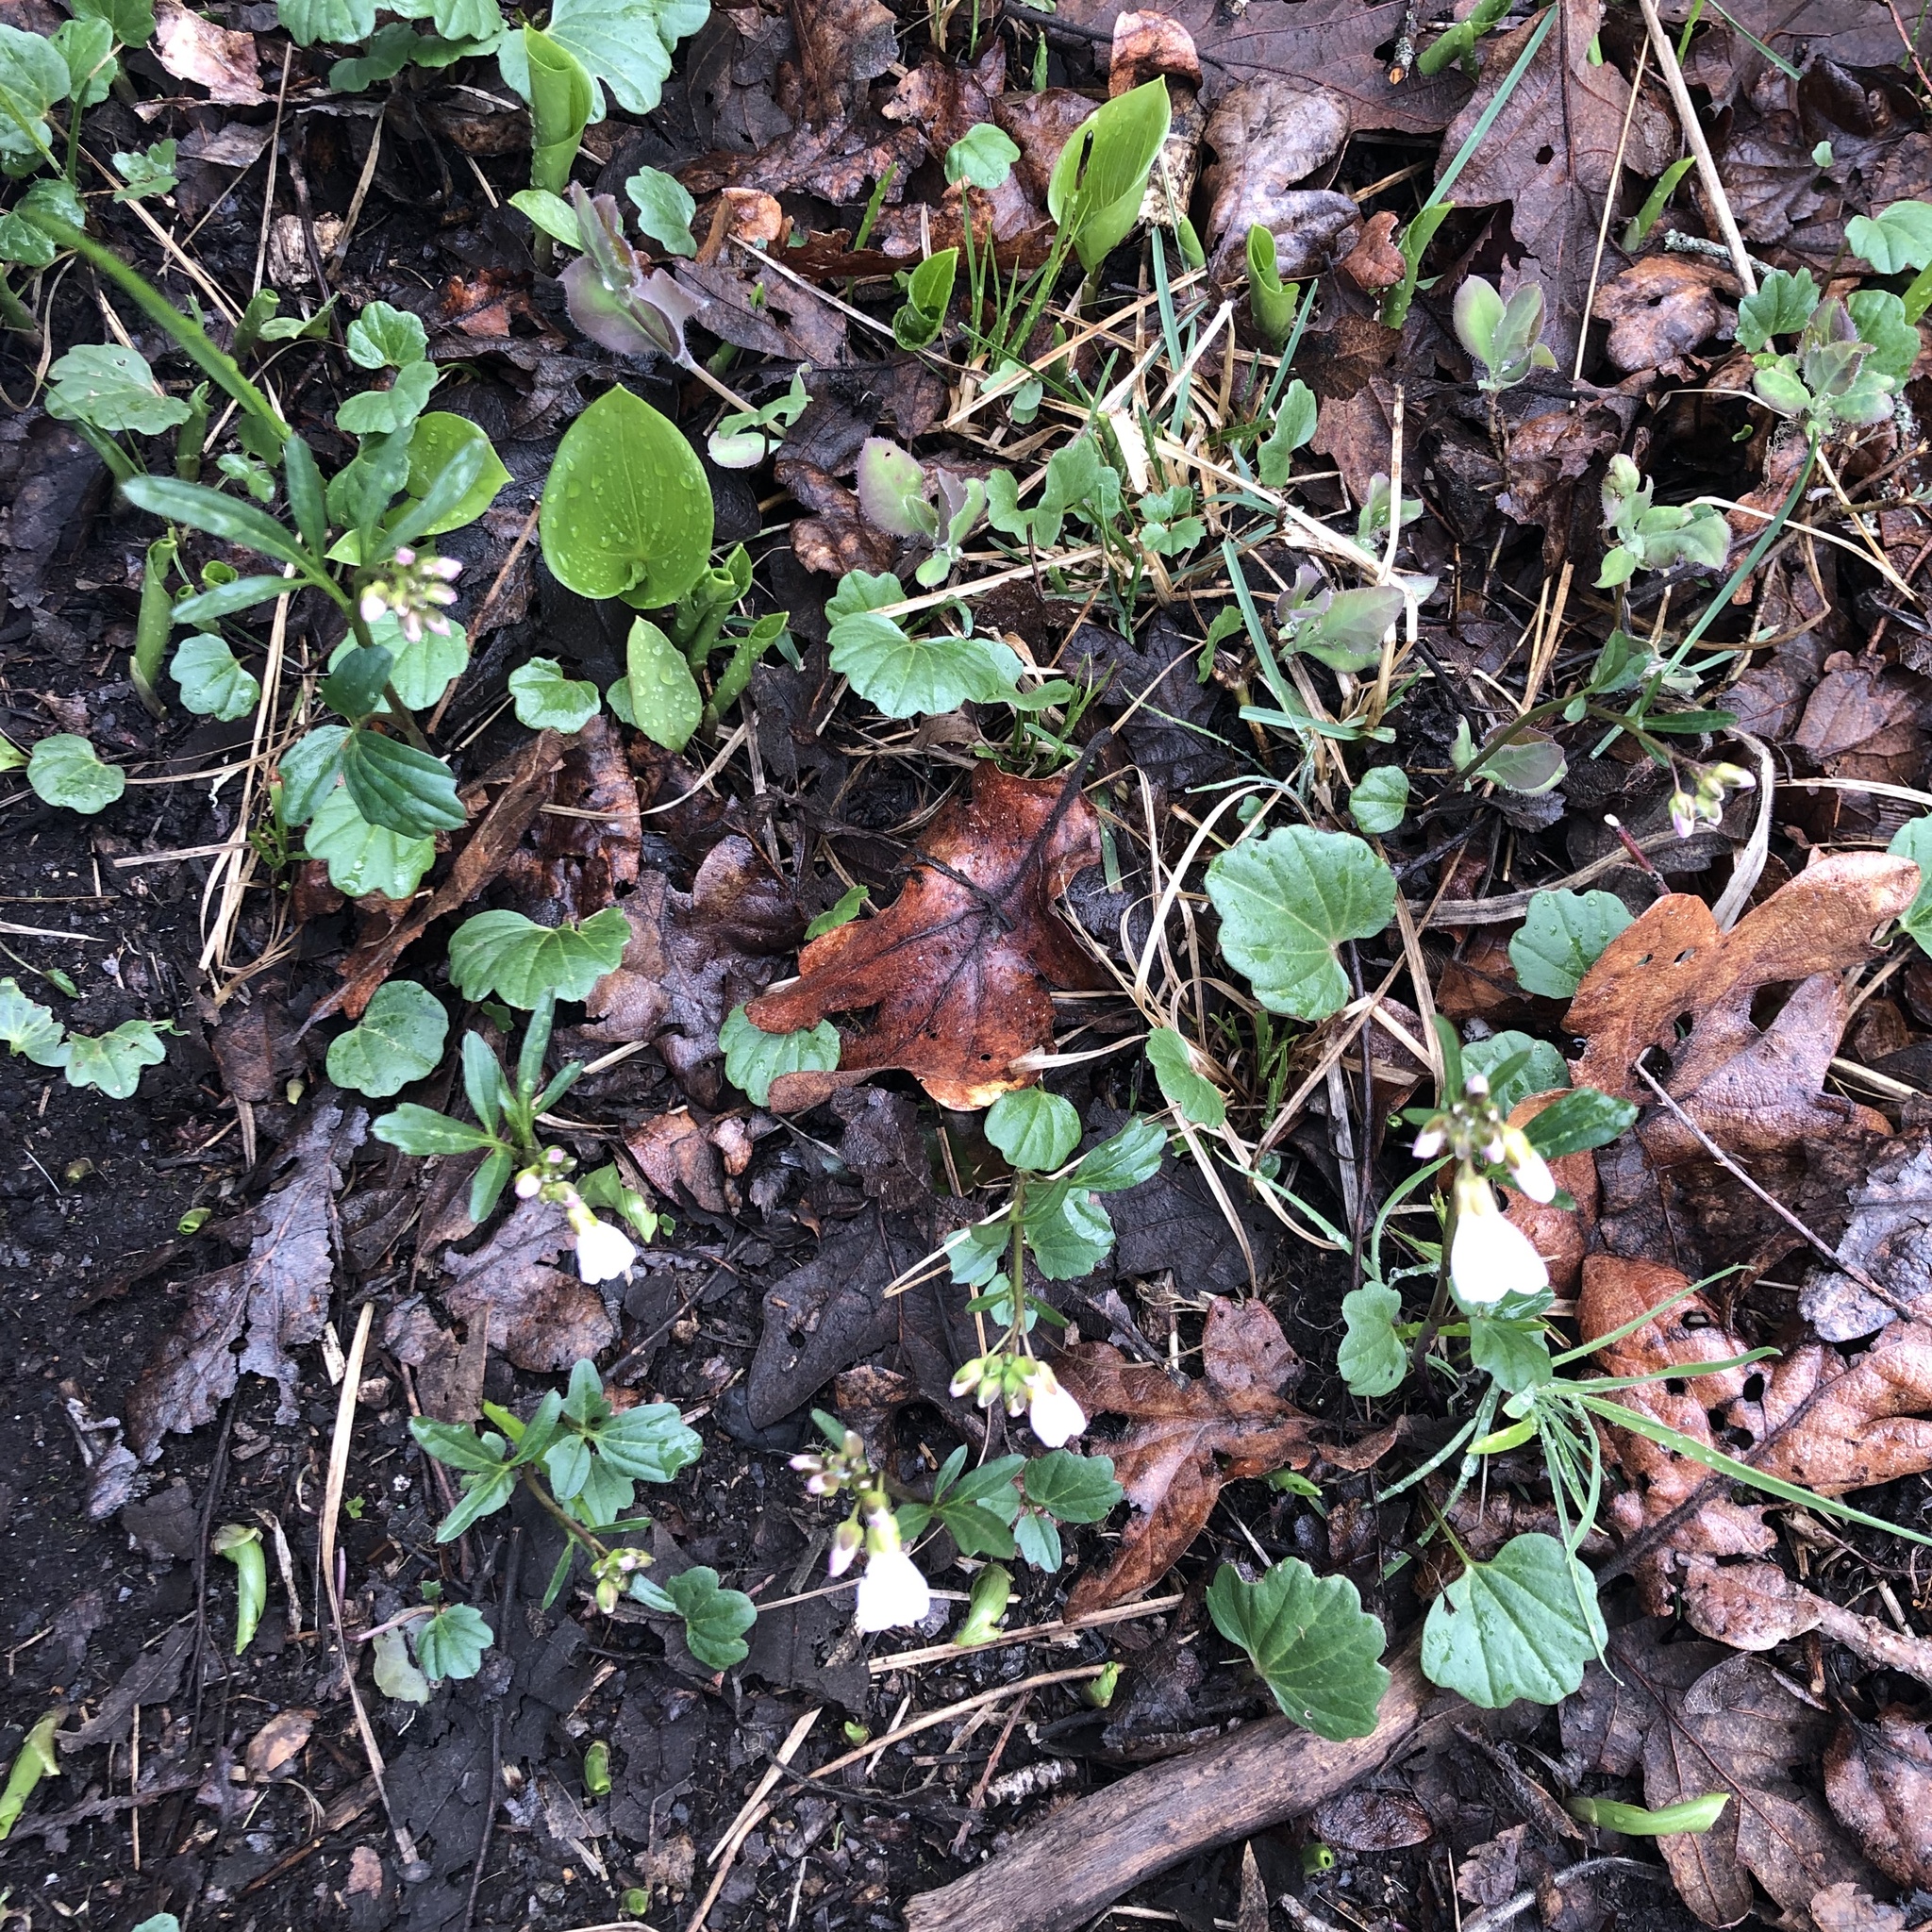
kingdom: Plantae
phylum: Tracheophyta
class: Magnoliopsida
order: Brassicales
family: Brassicaceae
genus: Cardamine
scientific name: Cardamine nuttallii
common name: Nuttall's toothwort
